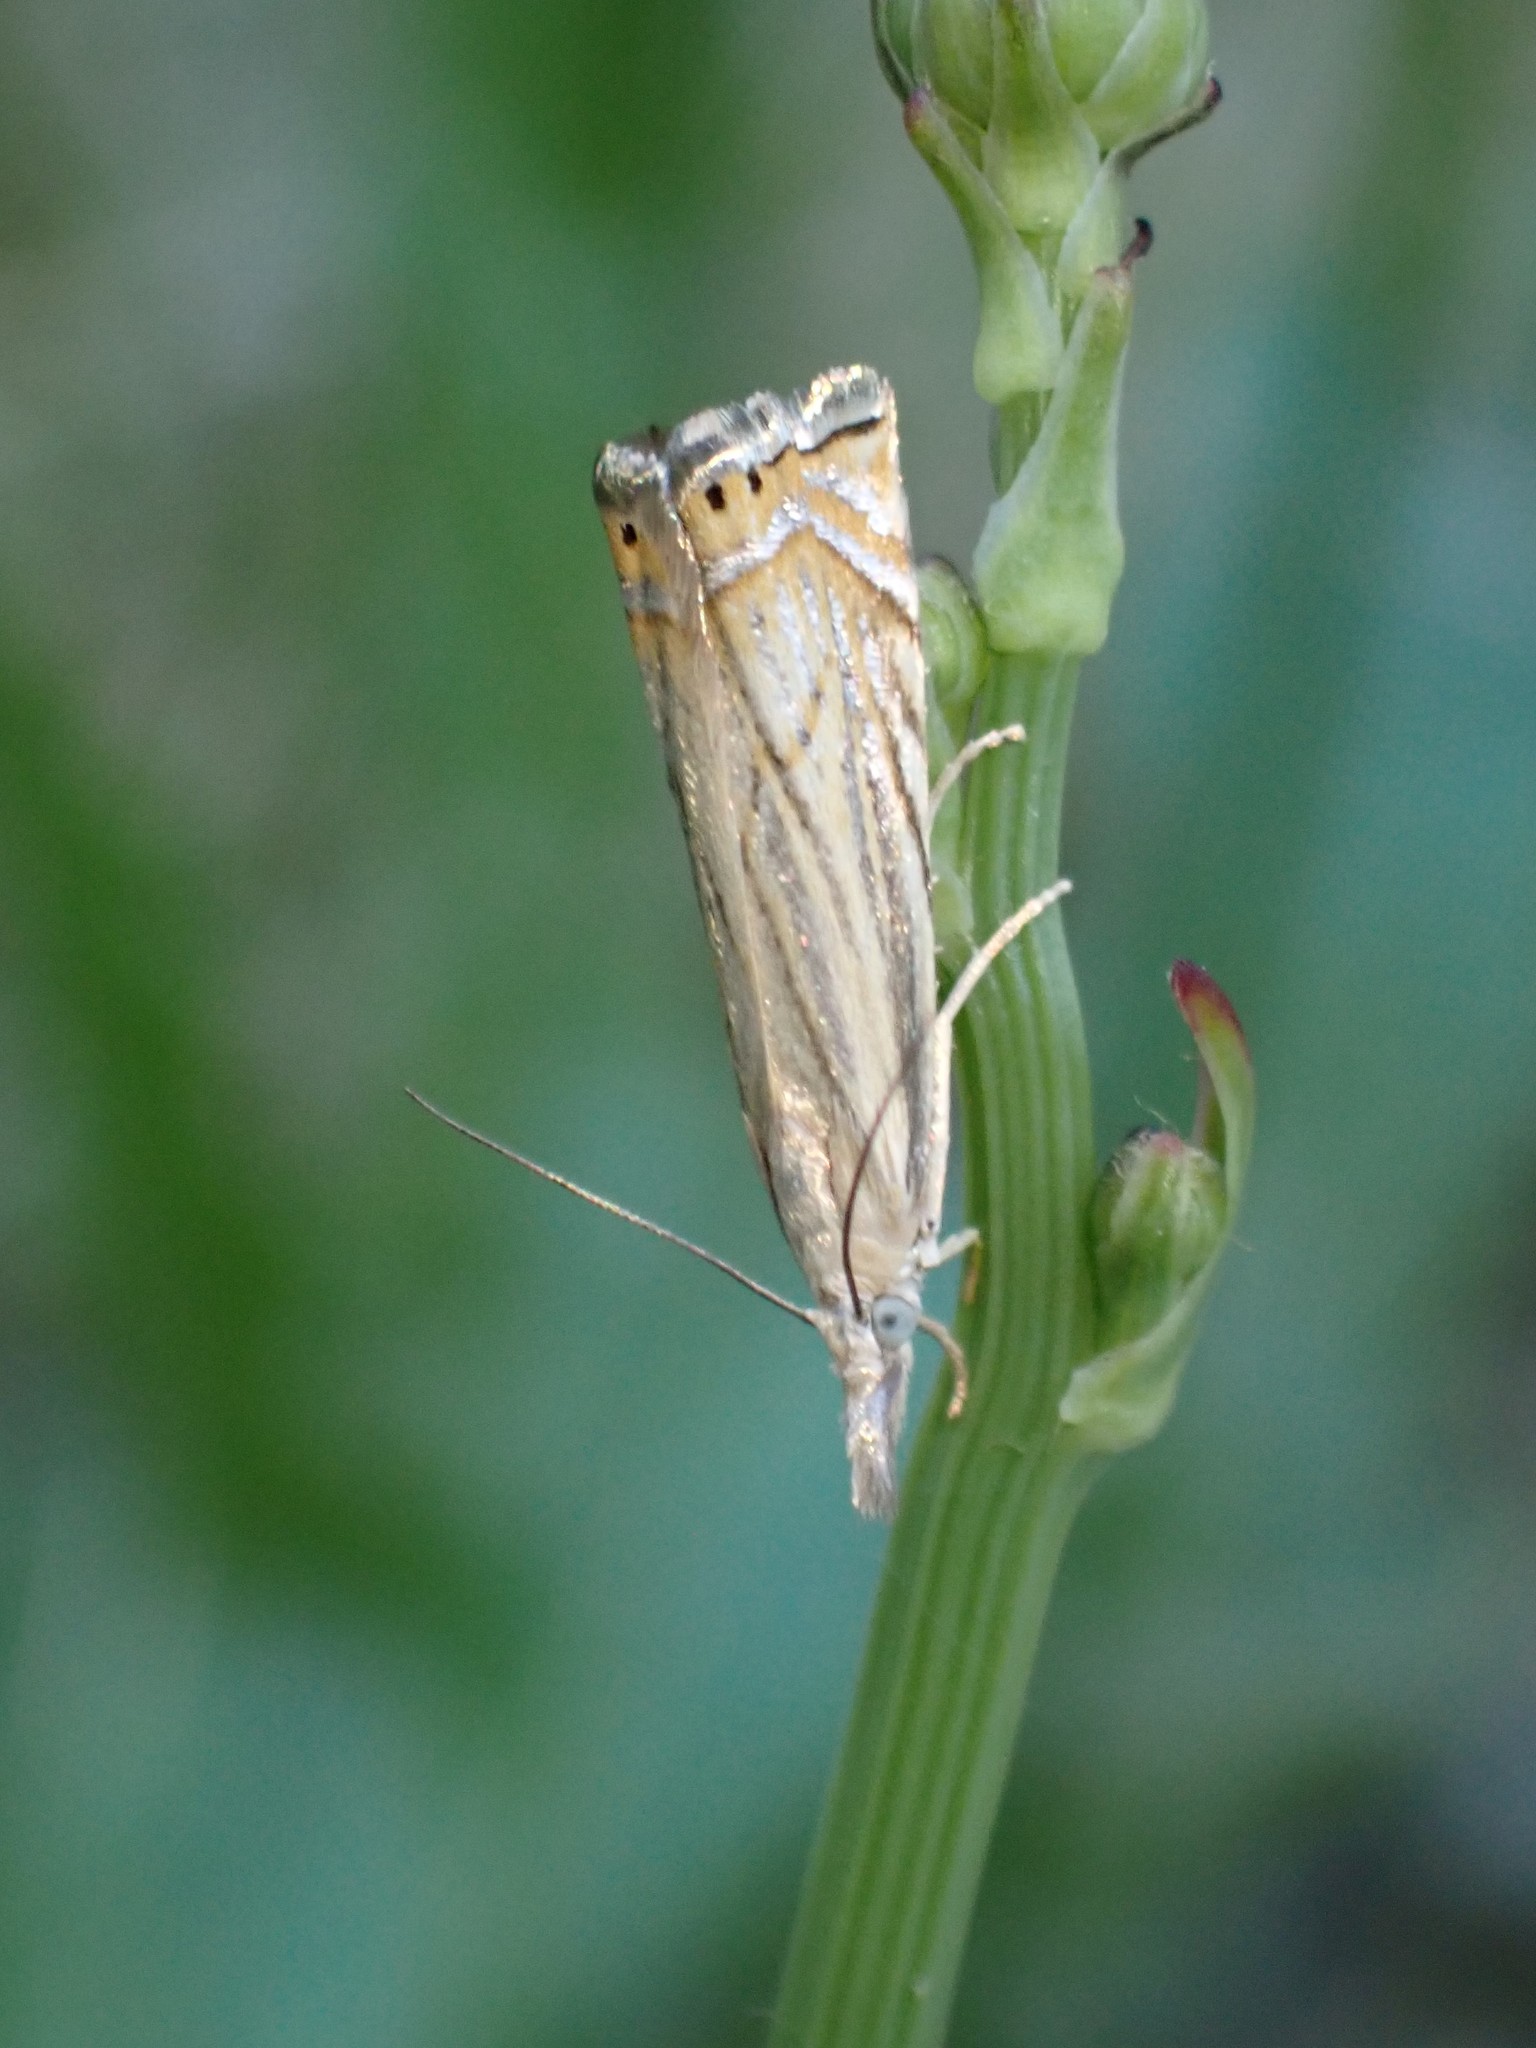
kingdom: Animalia
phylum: Arthropoda
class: Insecta
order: Lepidoptera
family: Crambidae
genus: Chrysoteuchia
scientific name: Chrysoteuchia topiarius
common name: Topiary grass-veneer
